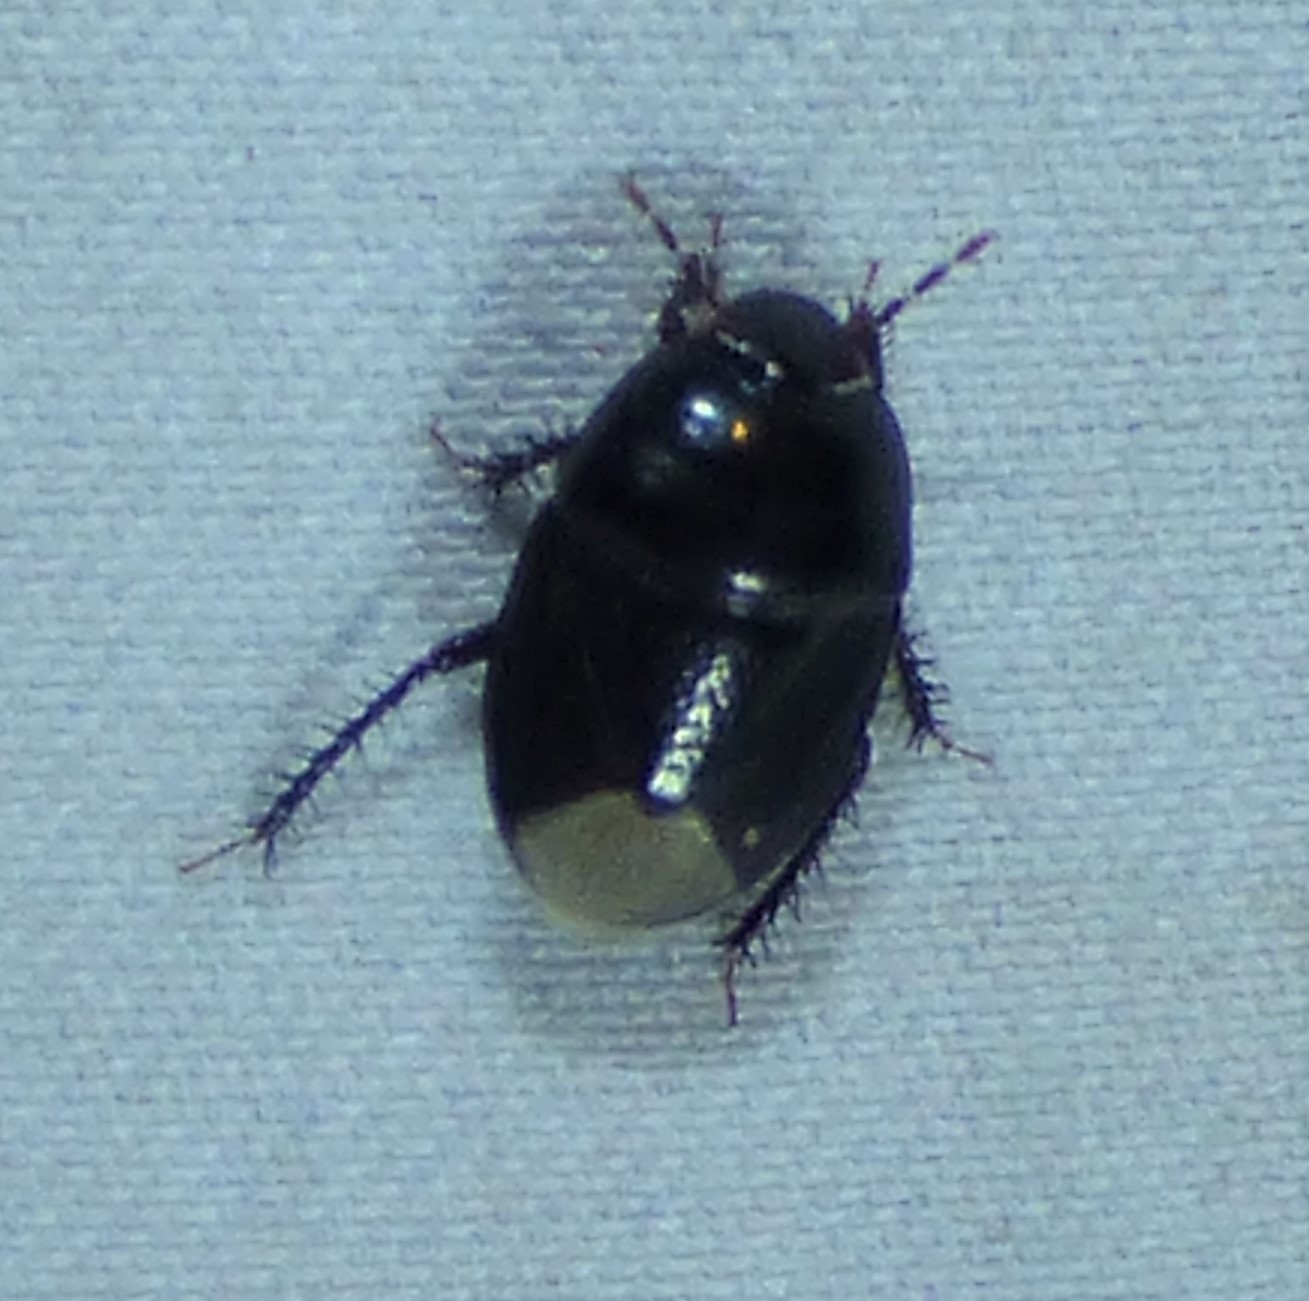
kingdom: Animalia
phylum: Arthropoda
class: Insecta
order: Hemiptera
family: Cydnidae
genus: Pangaeus
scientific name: Pangaeus bilineatus
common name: Burrower bug
